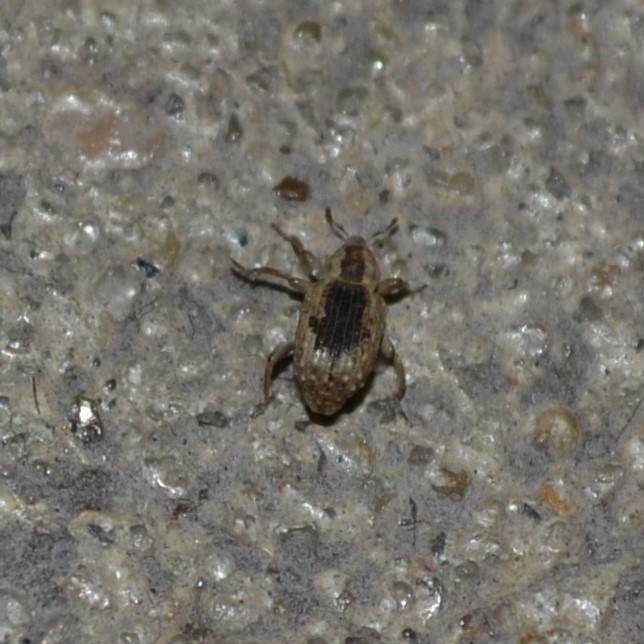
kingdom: Animalia
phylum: Arthropoda
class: Insecta
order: Coleoptera
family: Brachyceridae
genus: Lissorhoptrus
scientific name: Lissorhoptrus oryzophilus
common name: Rice water weevil
